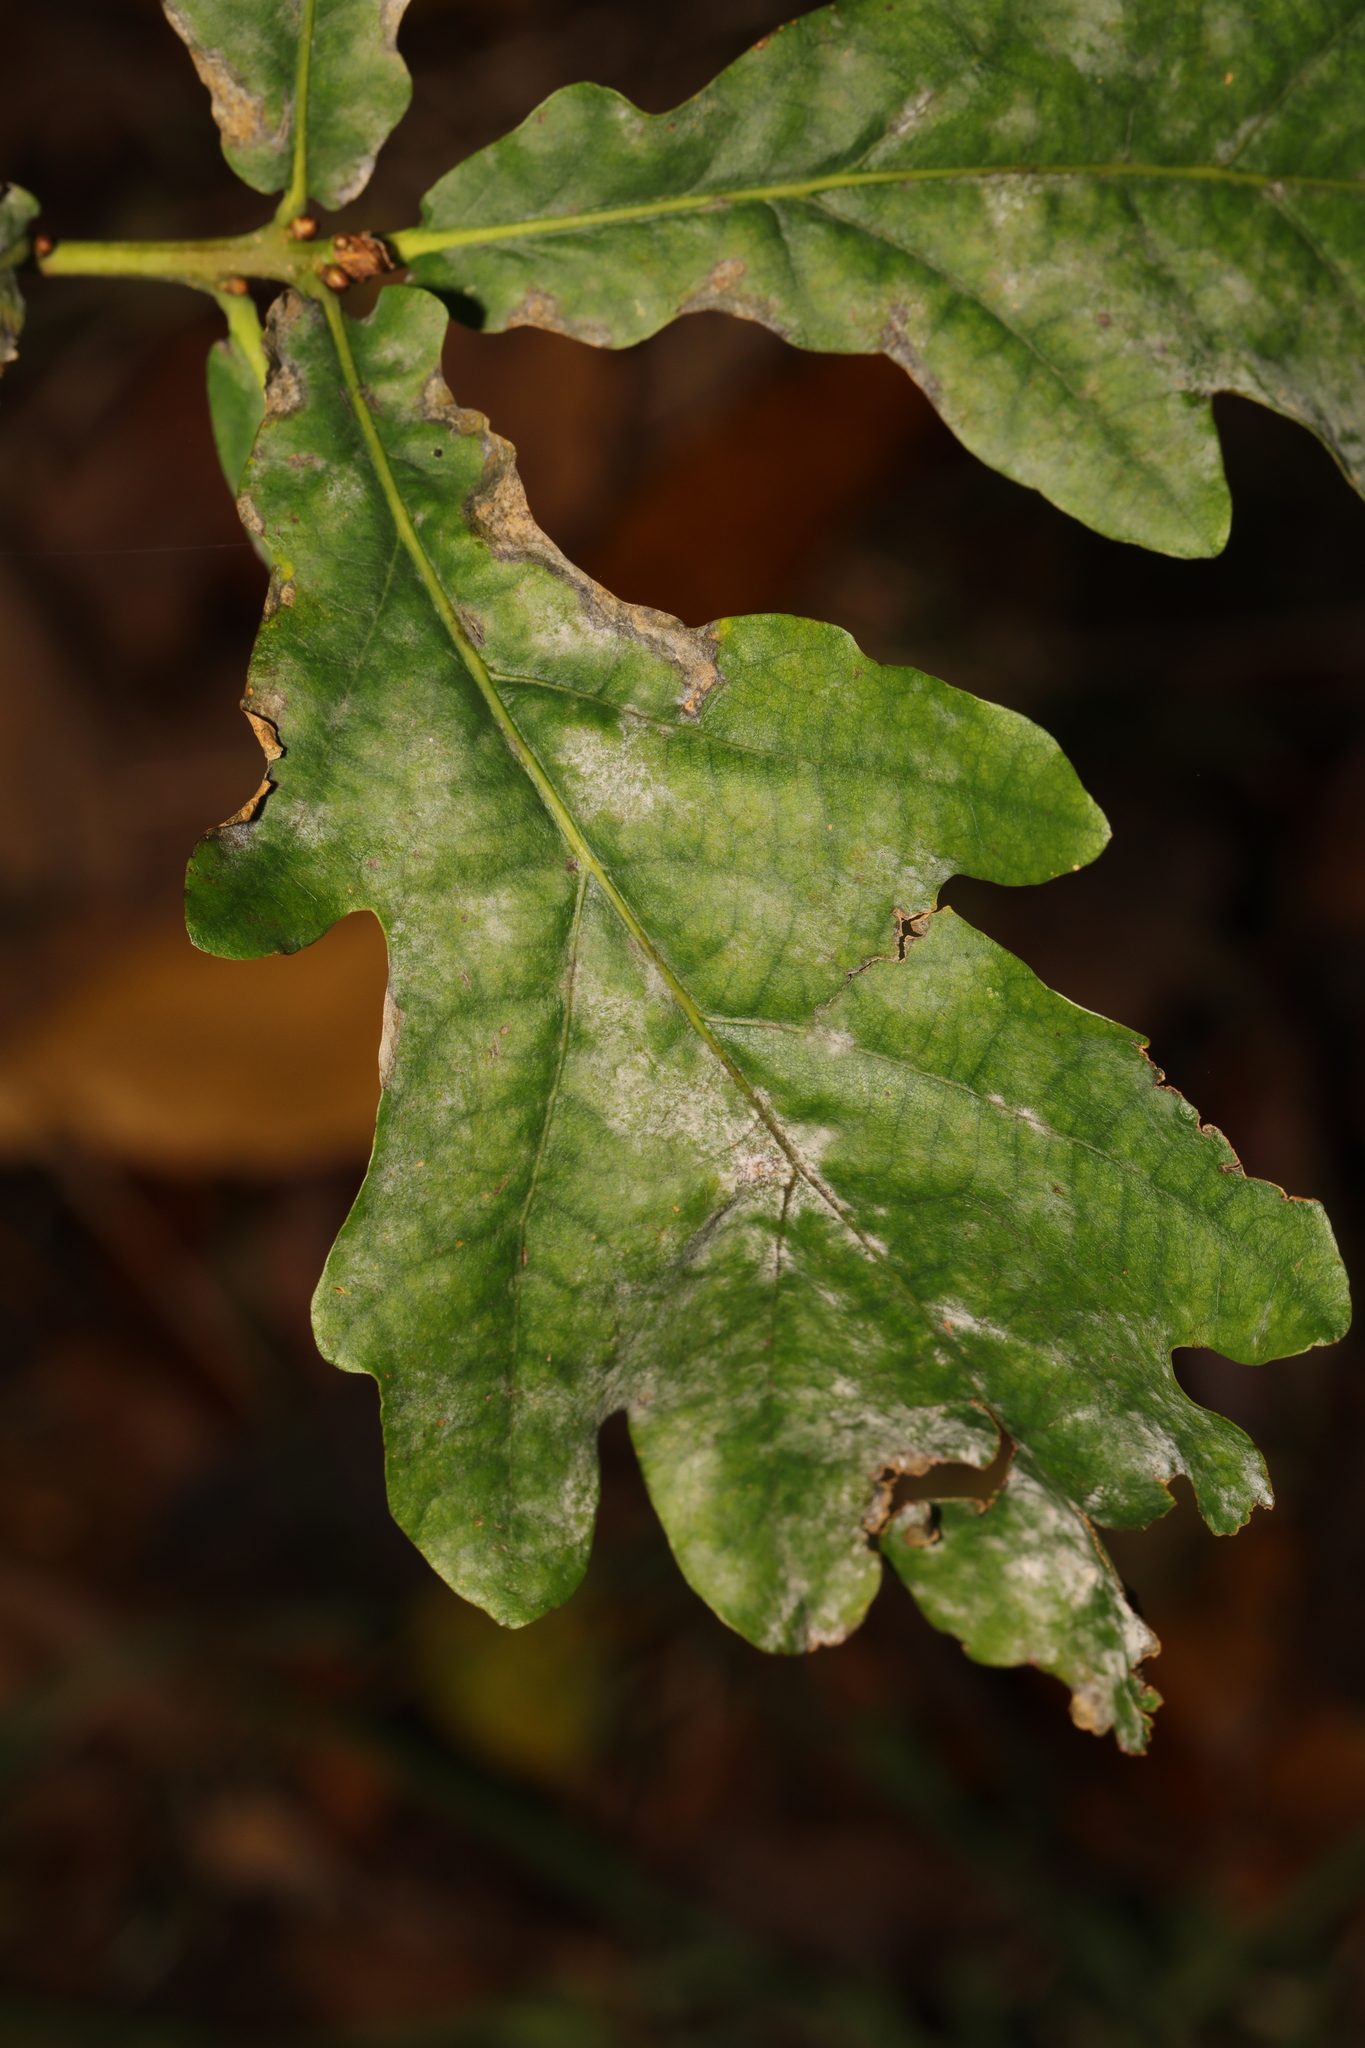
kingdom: Fungi
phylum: Ascomycota
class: Leotiomycetes
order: Helotiales
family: Erysiphaceae
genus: Erysiphe
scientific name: Erysiphe alphitoides
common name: Oak mildew
